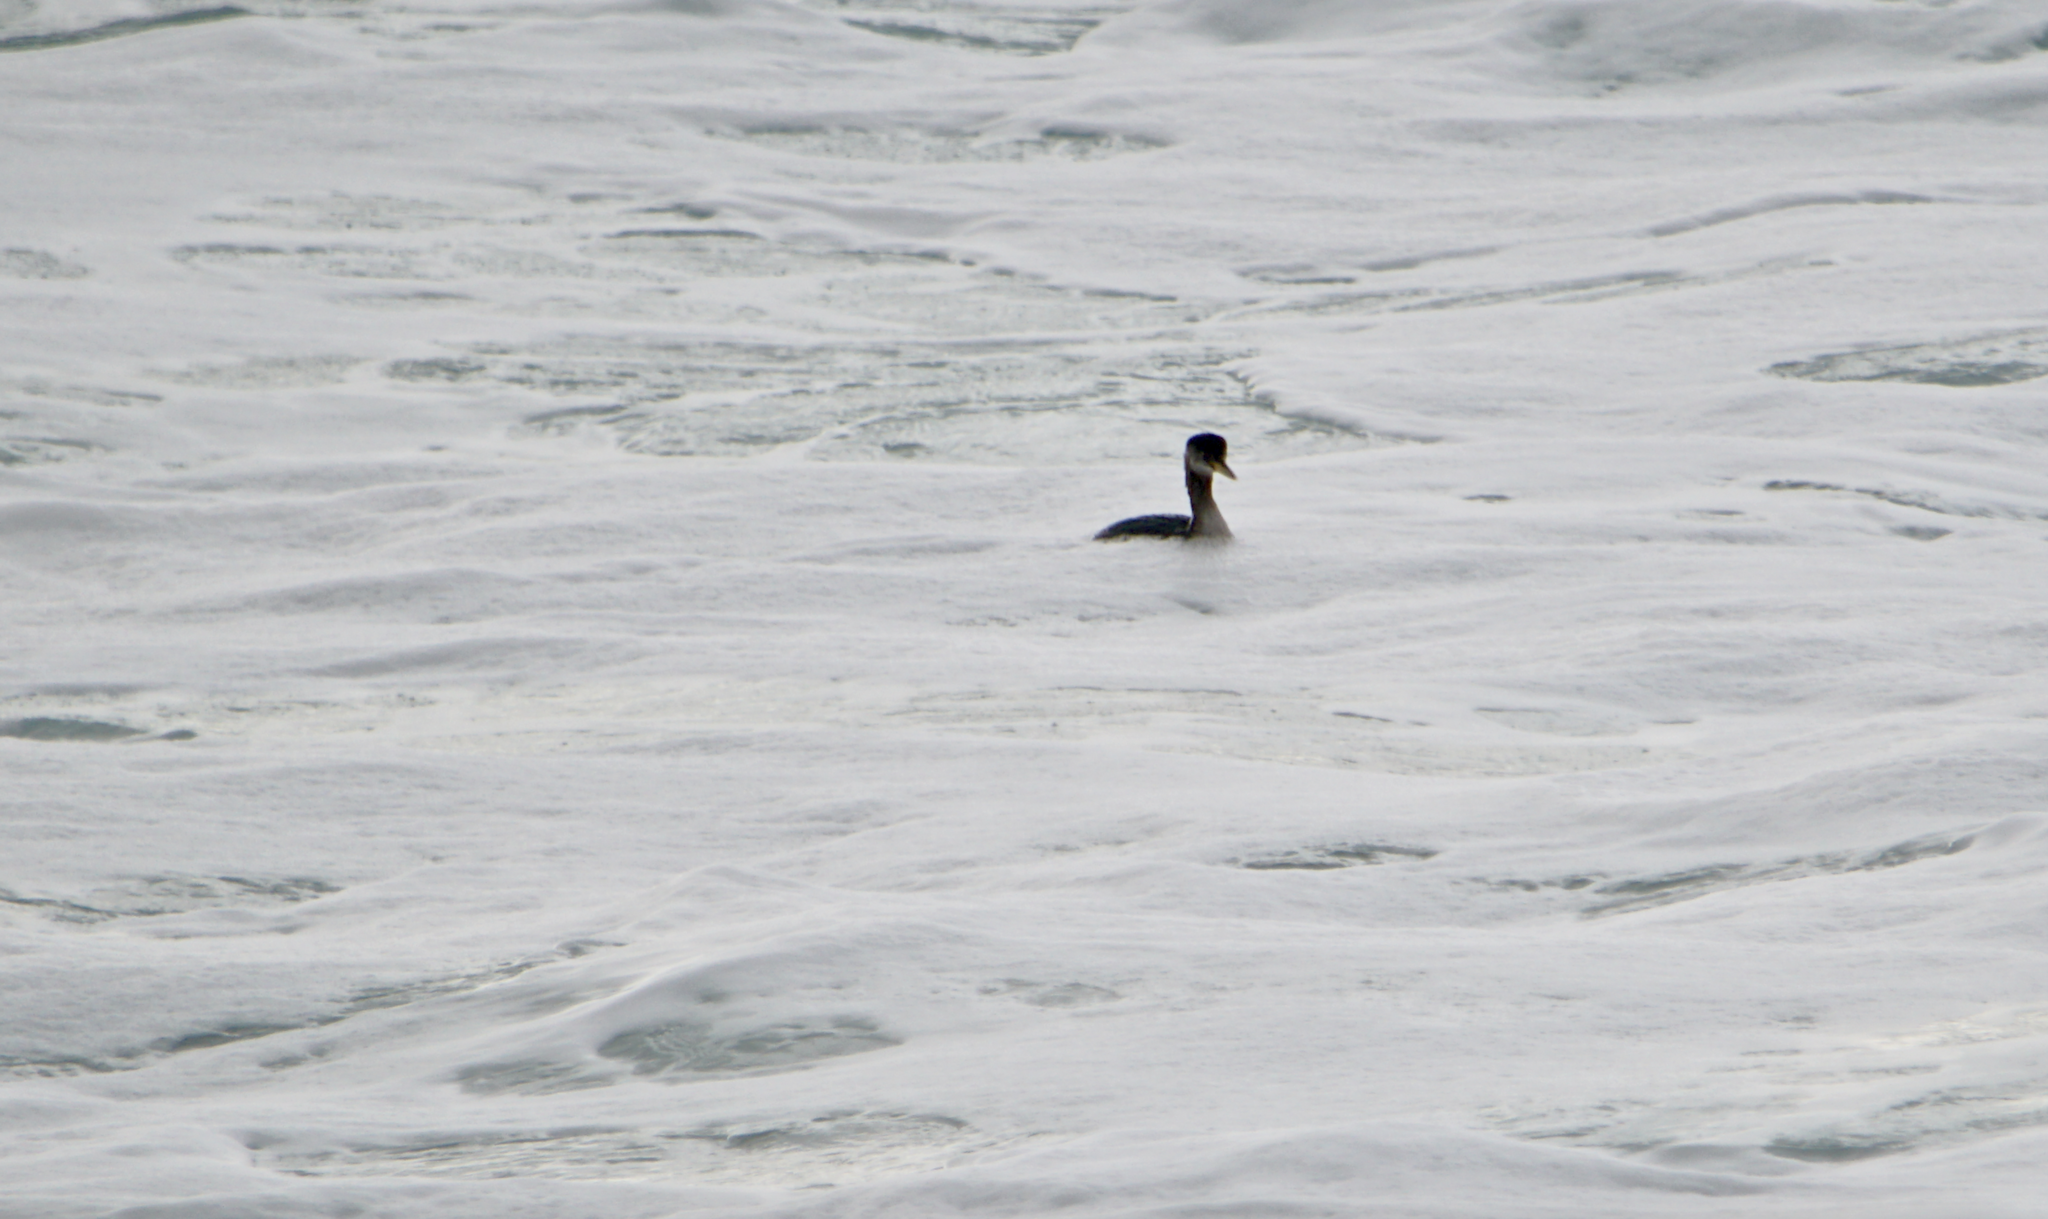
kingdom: Animalia
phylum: Chordata
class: Aves
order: Podicipediformes
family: Podicipedidae
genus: Podiceps
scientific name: Podiceps grisegena
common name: Red-necked grebe
